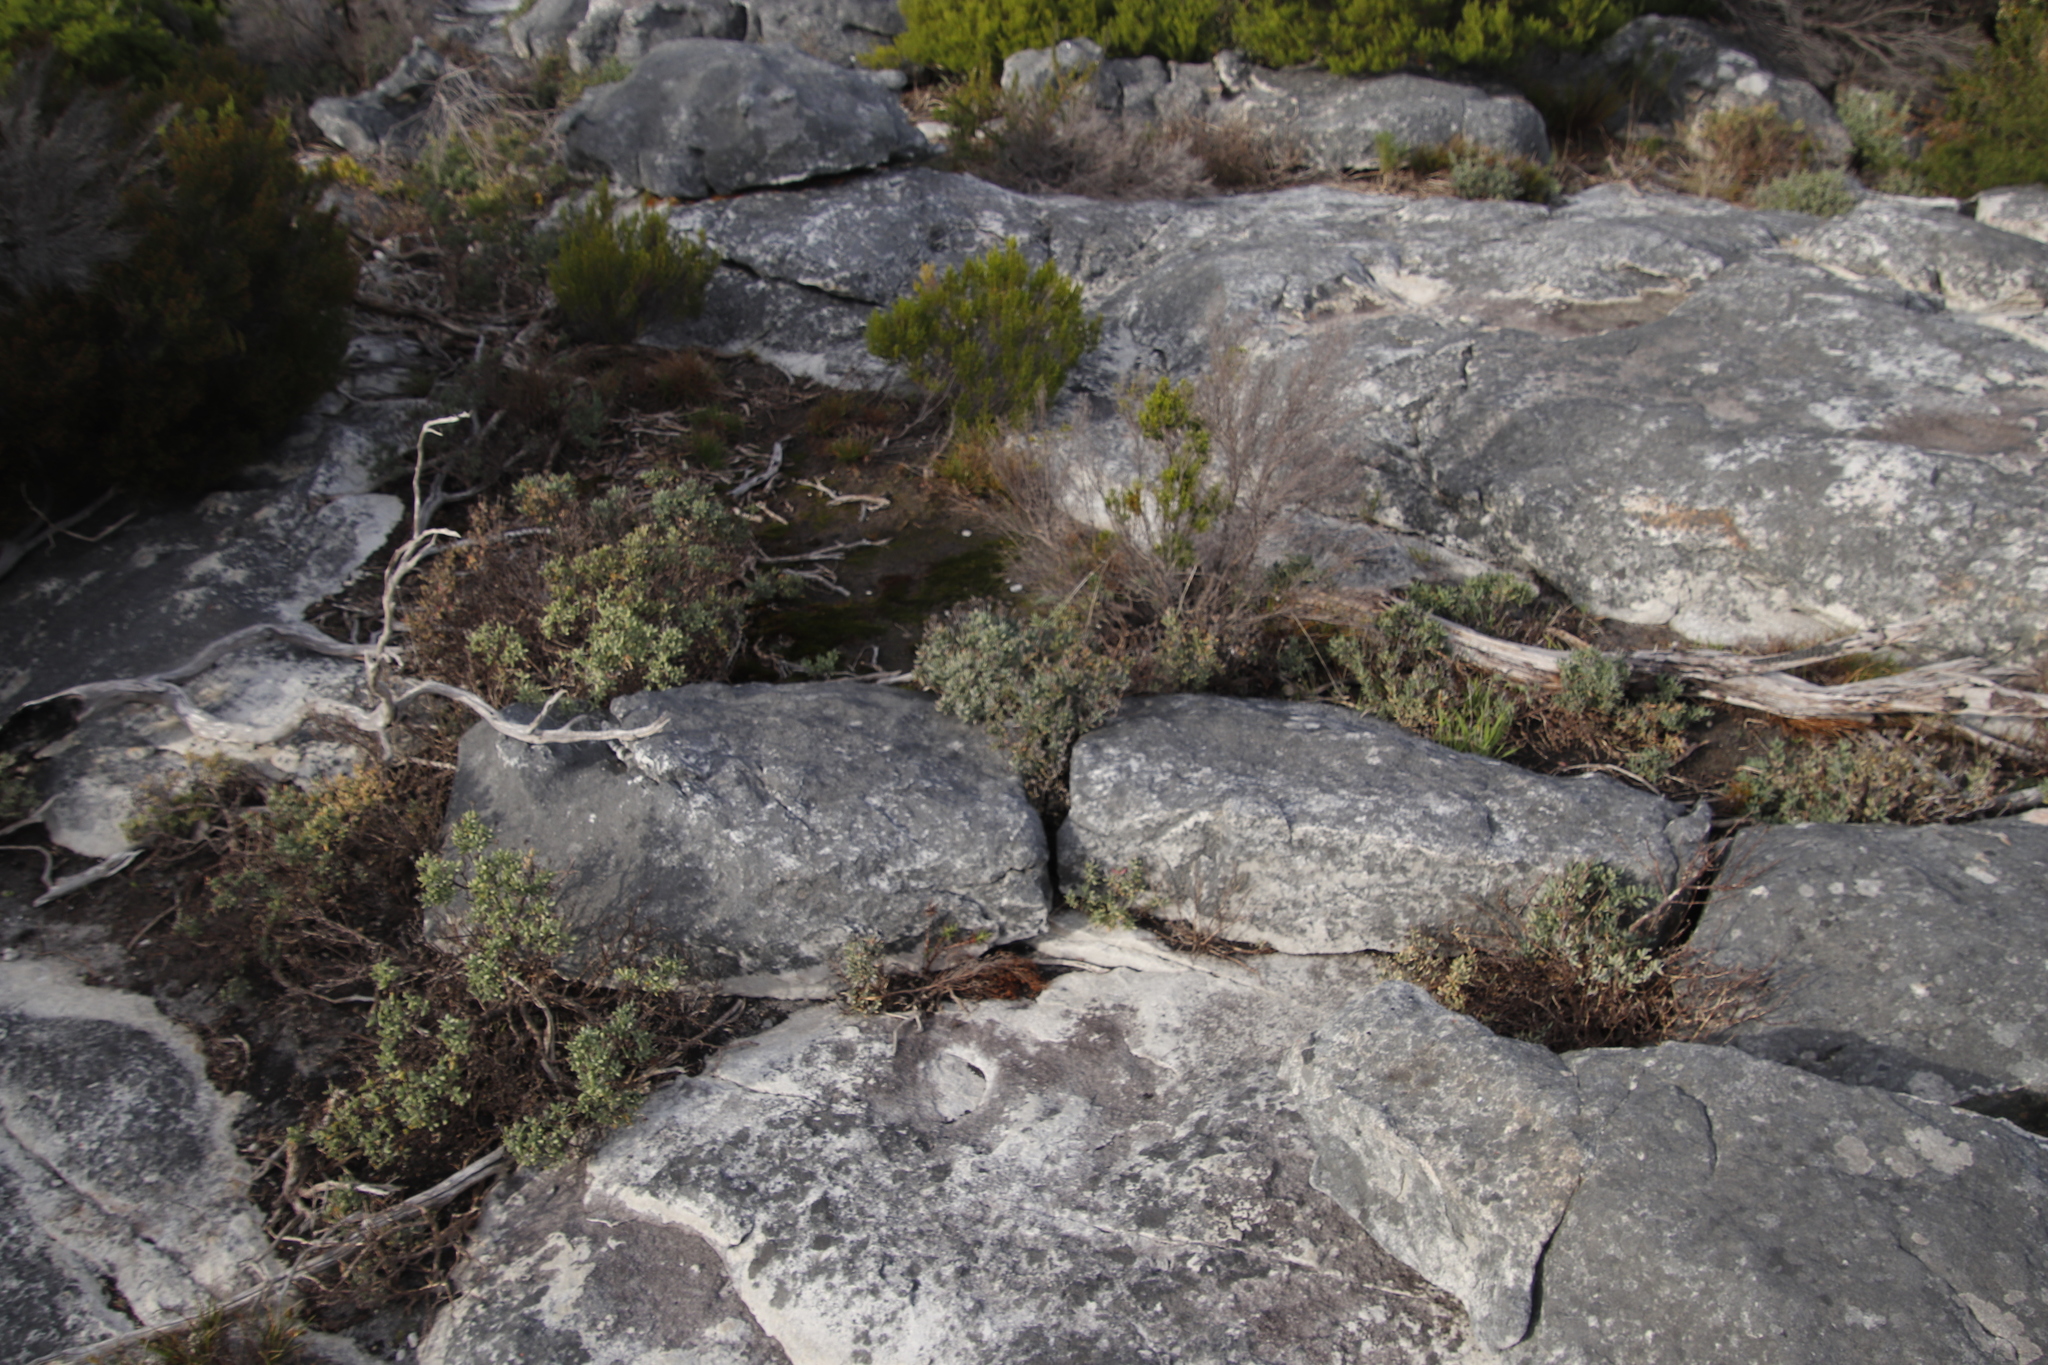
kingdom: Plantae
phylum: Tracheophyta
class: Magnoliopsida
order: Caryophyllales
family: Aizoaceae
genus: Lampranthus
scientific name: Lampranthus glomeratus
